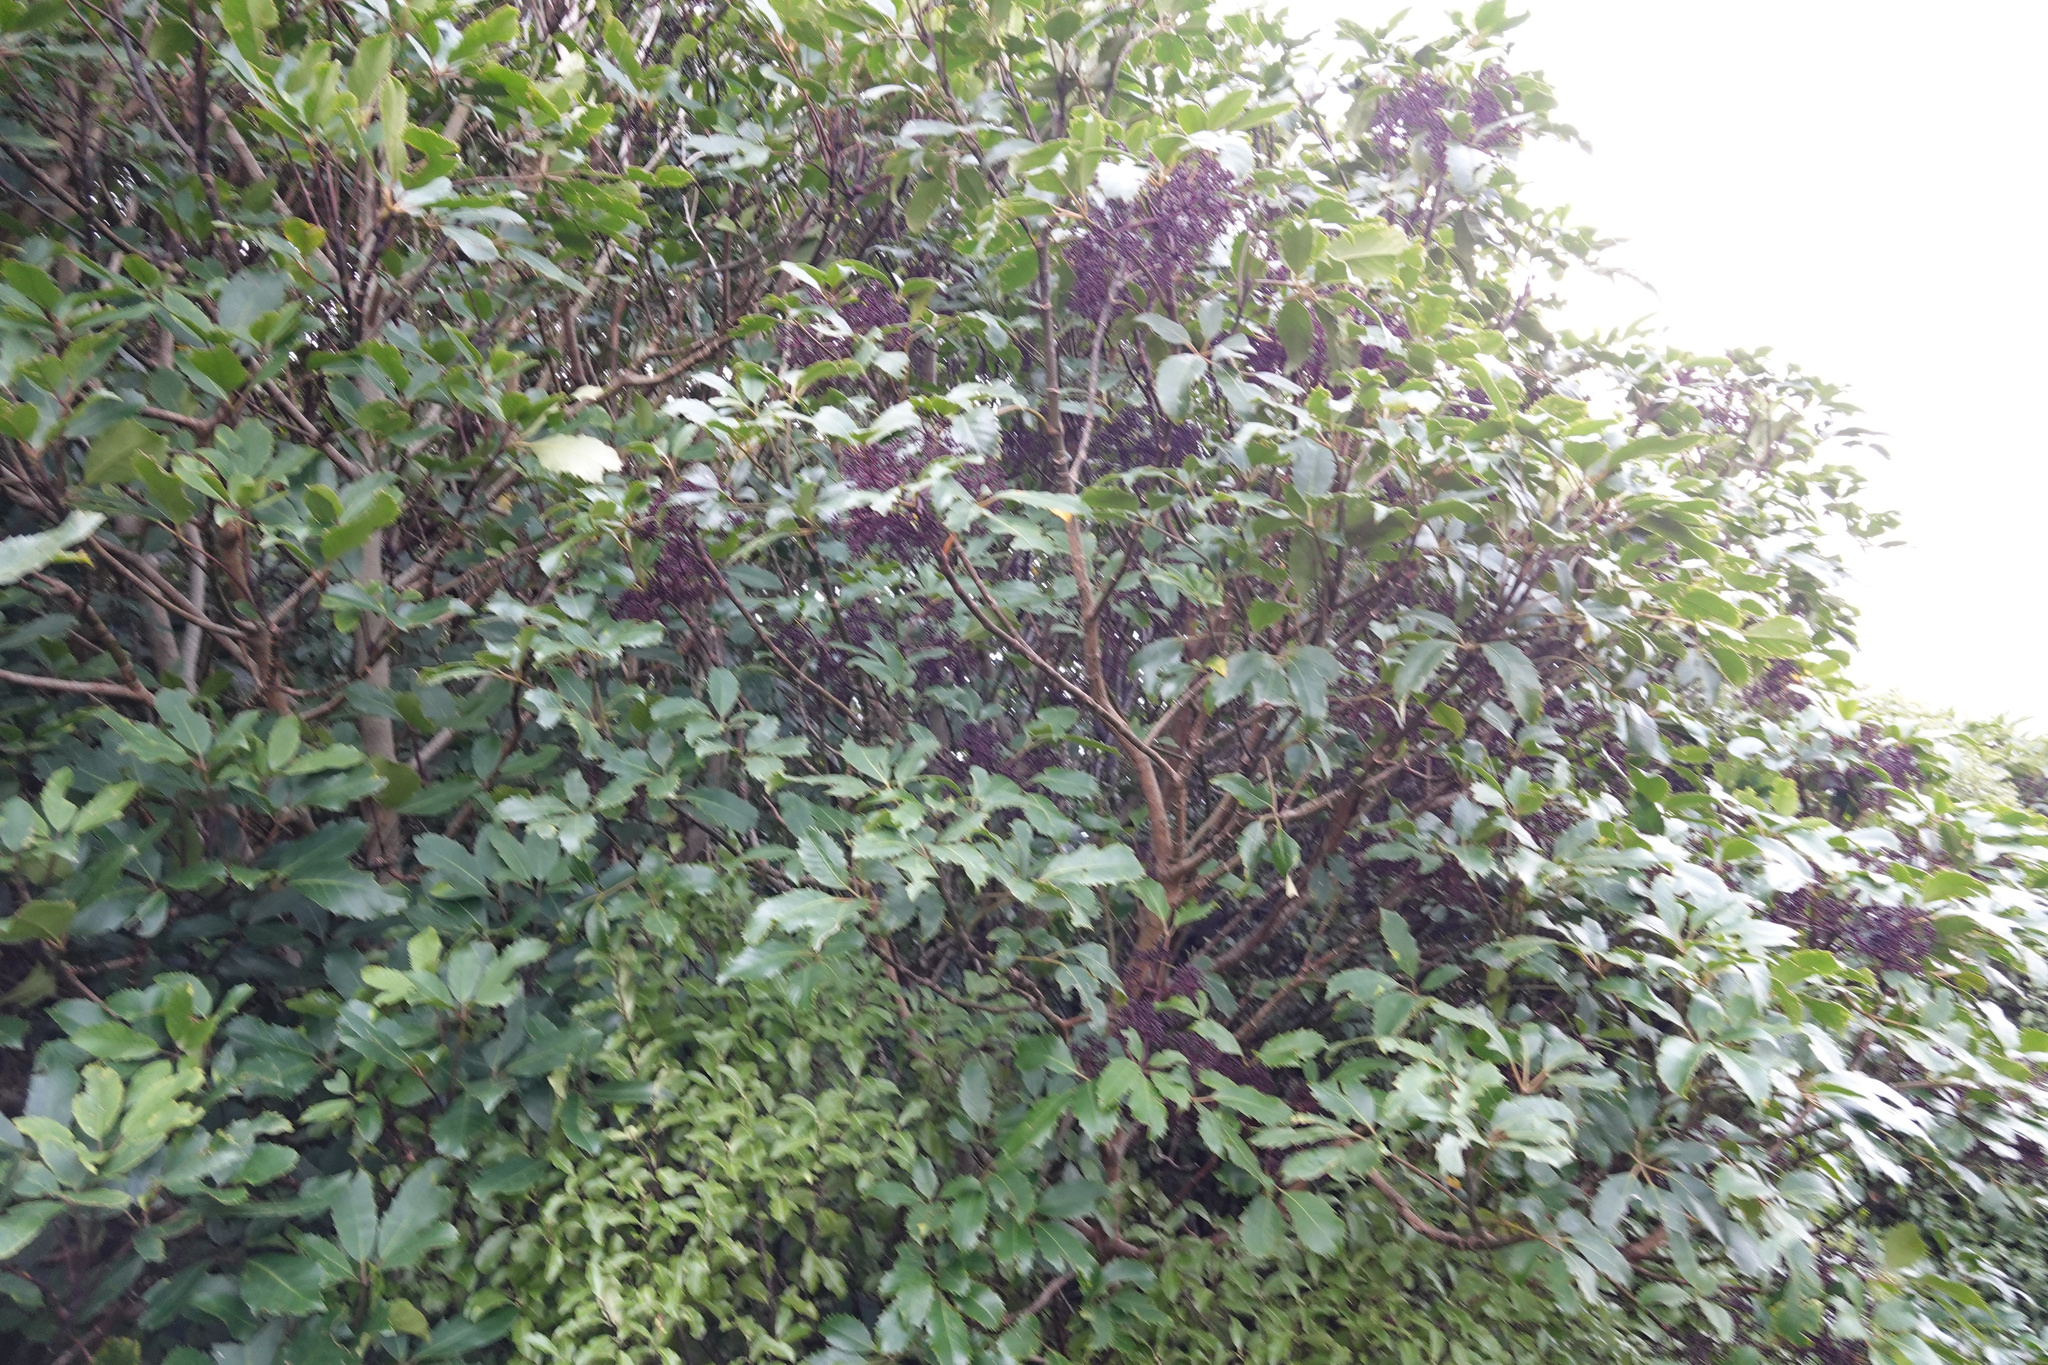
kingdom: Plantae
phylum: Tracheophyta
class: Magnoliopsida
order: Apiales
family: Araliaceae
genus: Neopanax
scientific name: Neopanax arboreus
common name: Five-fingers
